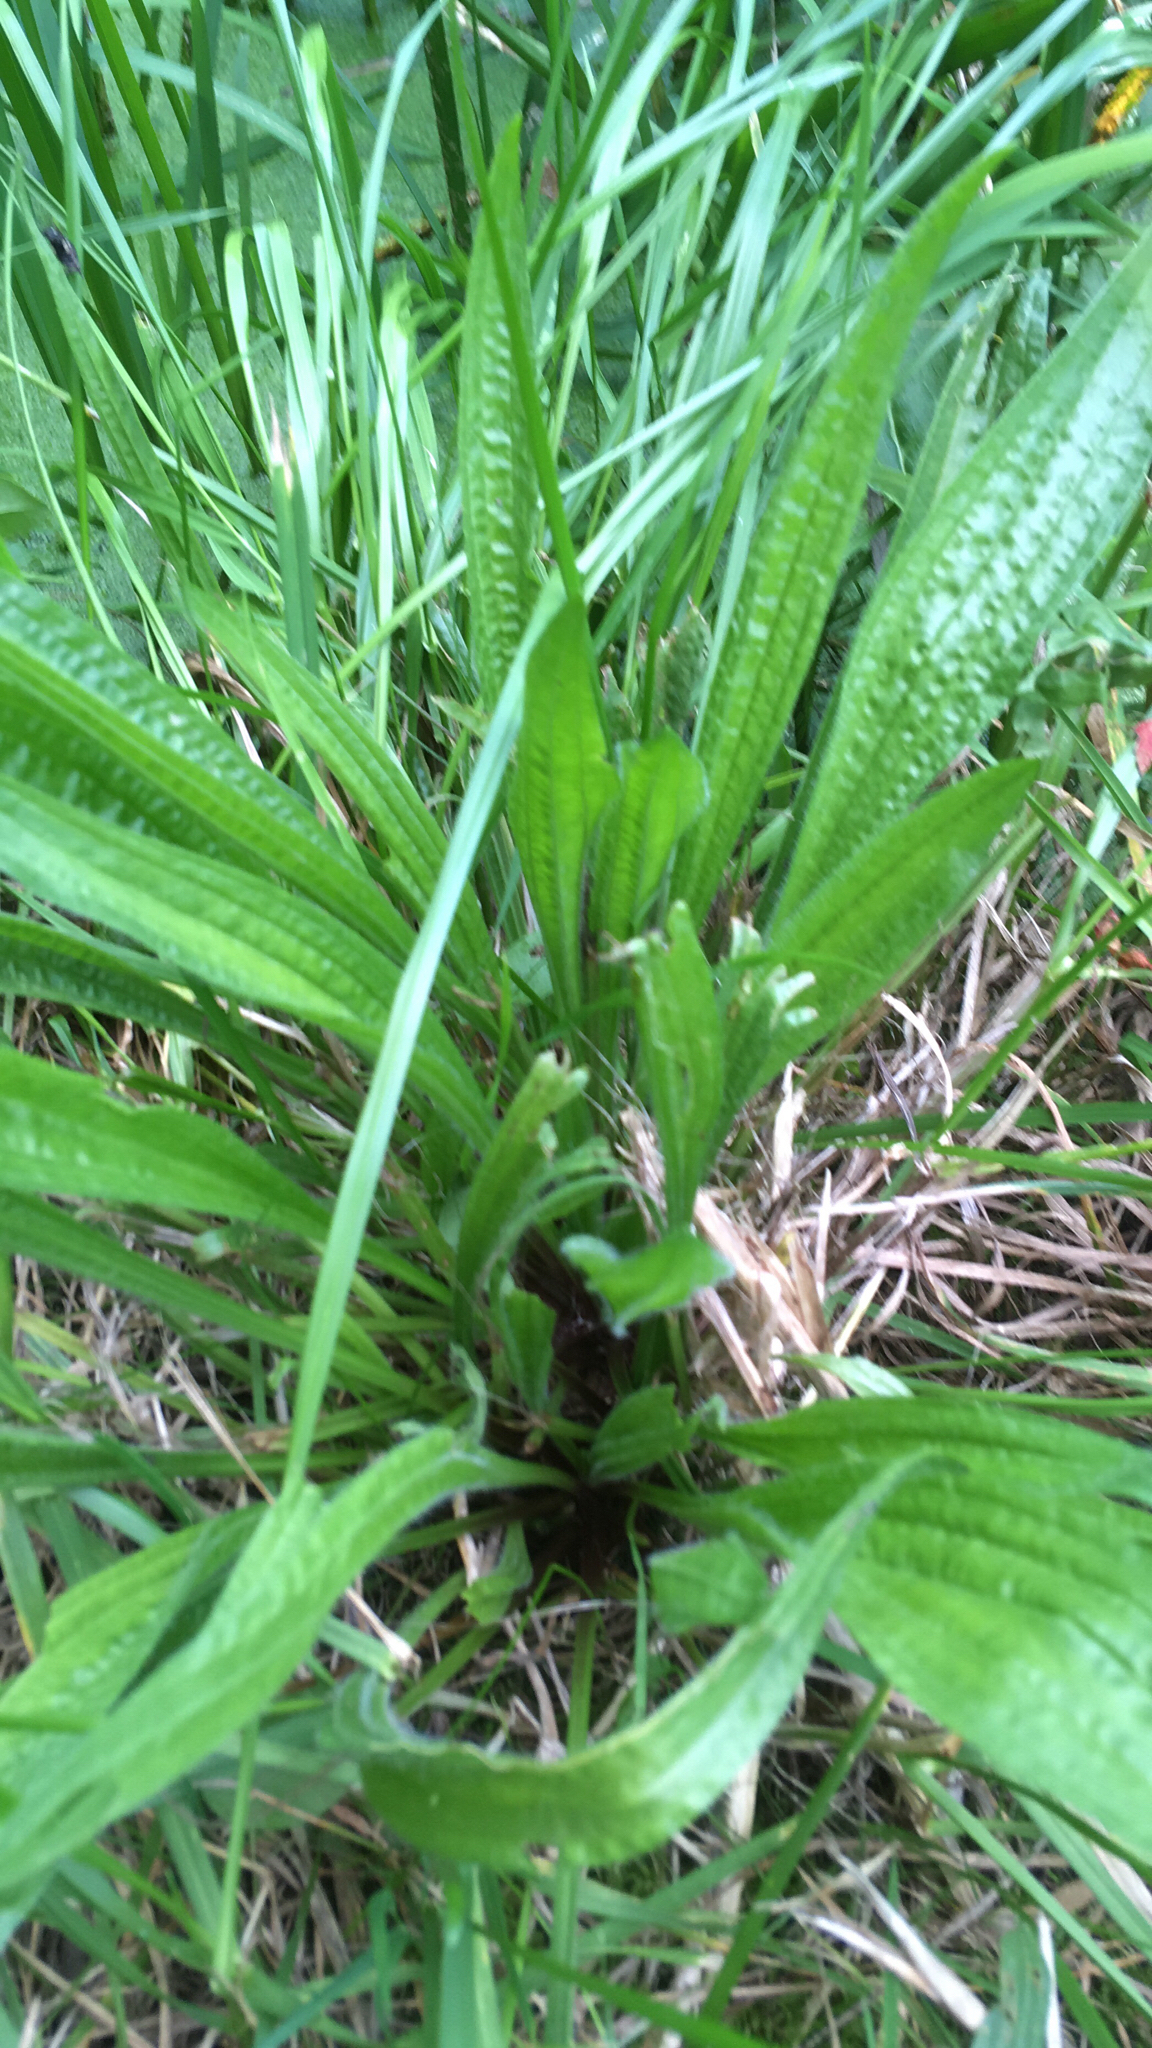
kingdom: Plantae
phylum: Tracheophyta
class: Magnoliopsida
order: Lamiales
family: Plantaginaceae
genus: Plantago
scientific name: Plantago lanceolata
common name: Ribwort plantain
